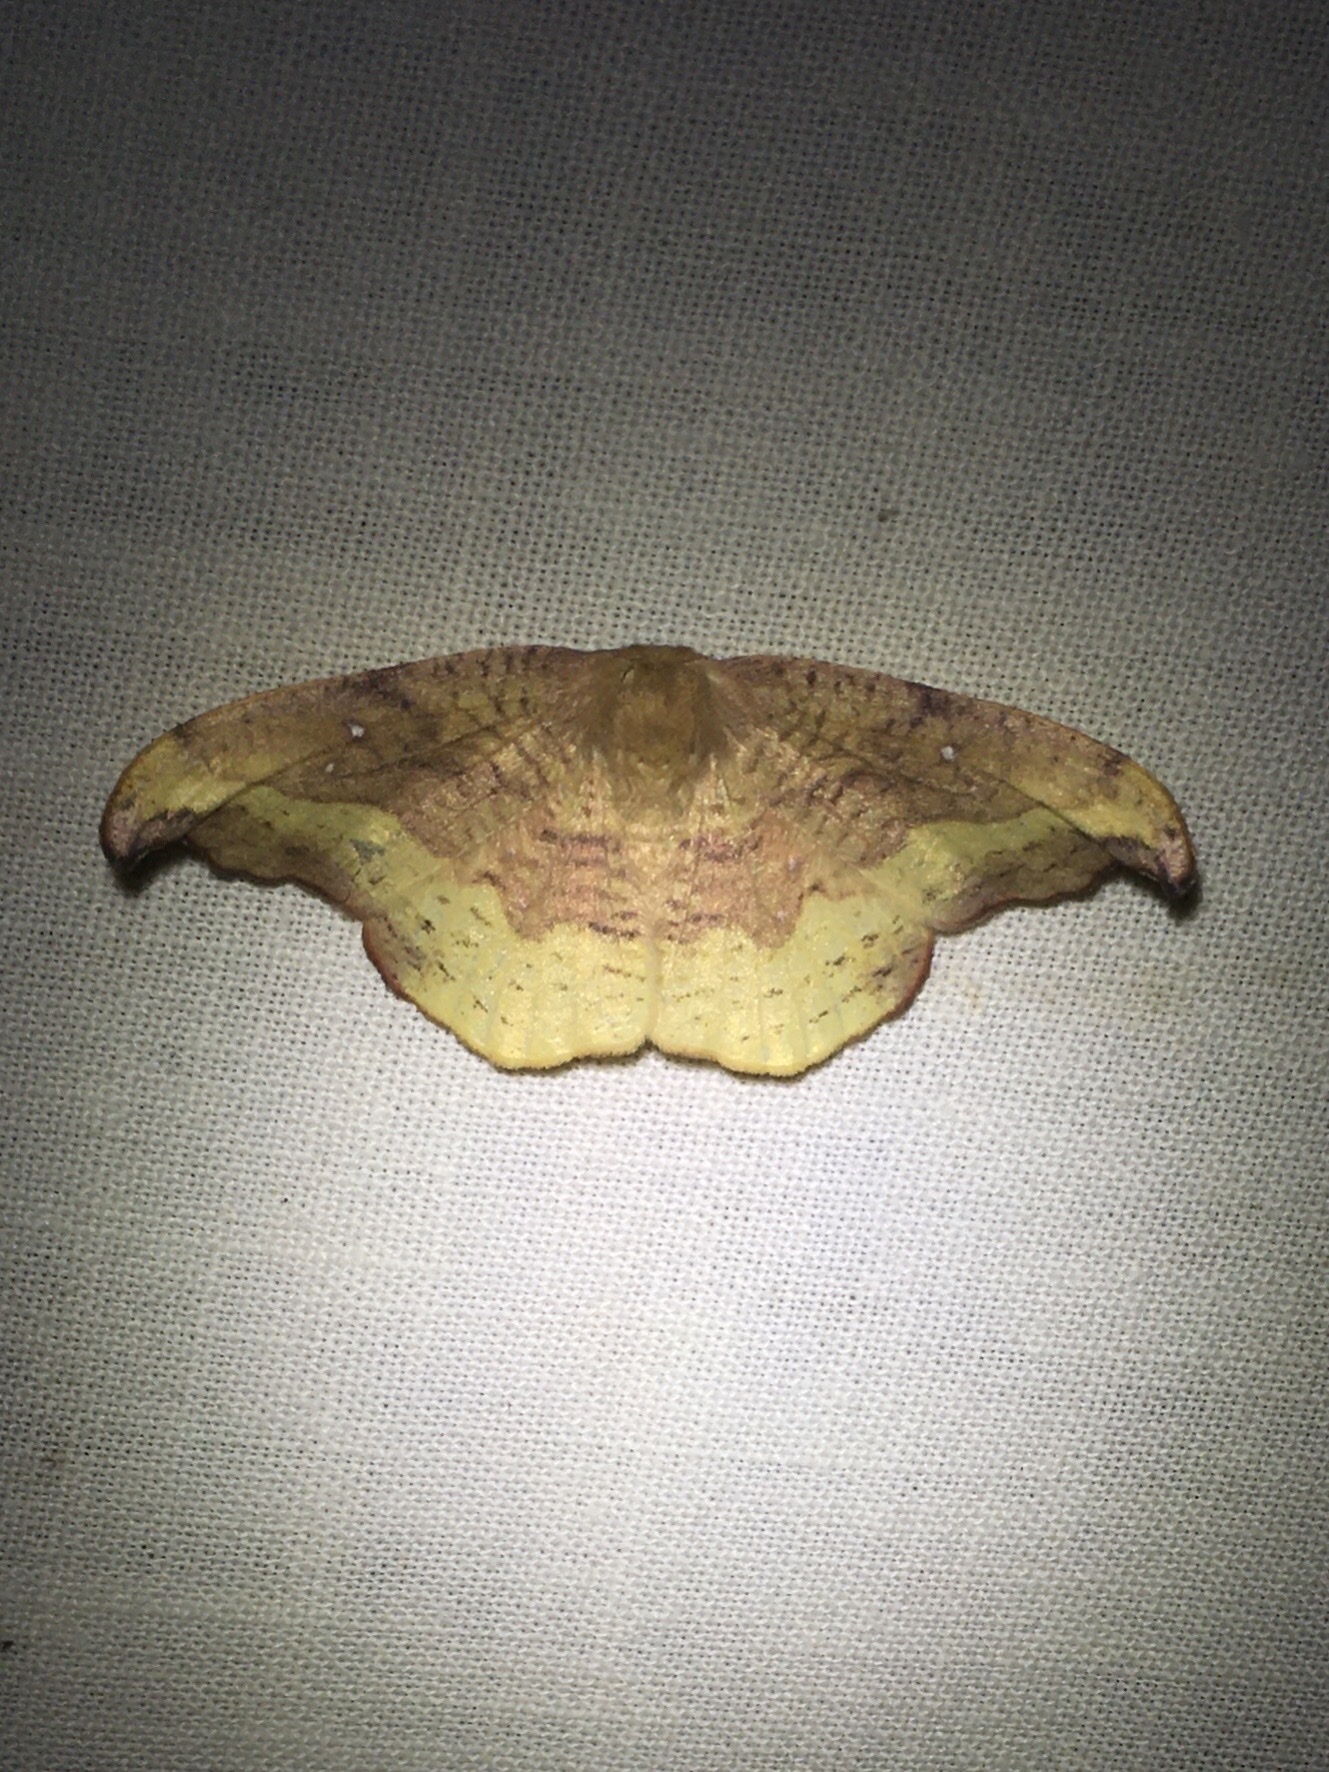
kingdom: Animalia
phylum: Arthropoda
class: Insecta
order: Lepidoptera
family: Drepanidae
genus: Oreta
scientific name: Oreta rosea
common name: Rose hooktip
